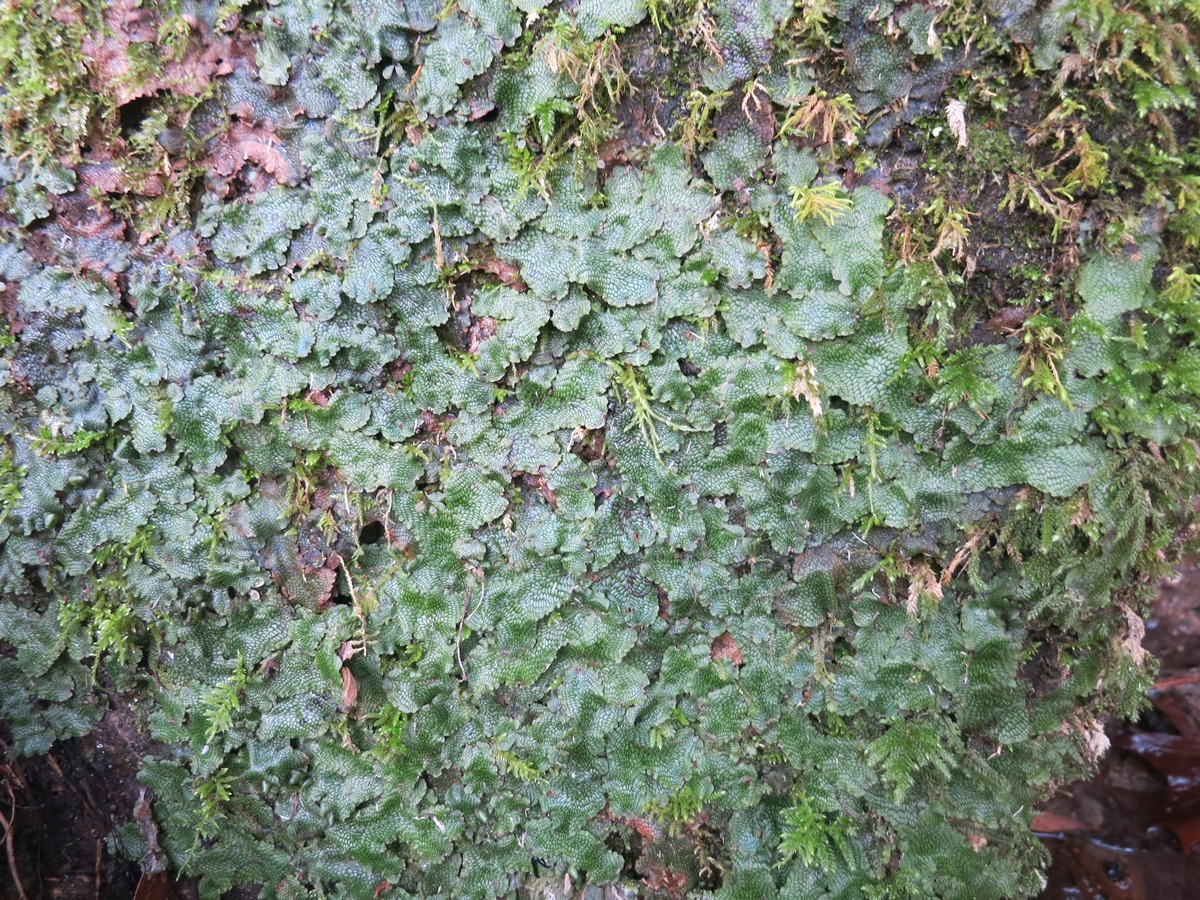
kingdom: Plantae
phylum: Marchantiophyta
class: Marchantiopsida
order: Marchantiales
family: Conocephalaceae
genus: Conocephalum
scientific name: Conocephalum salebrosum
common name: Cat-tongue liverwort
